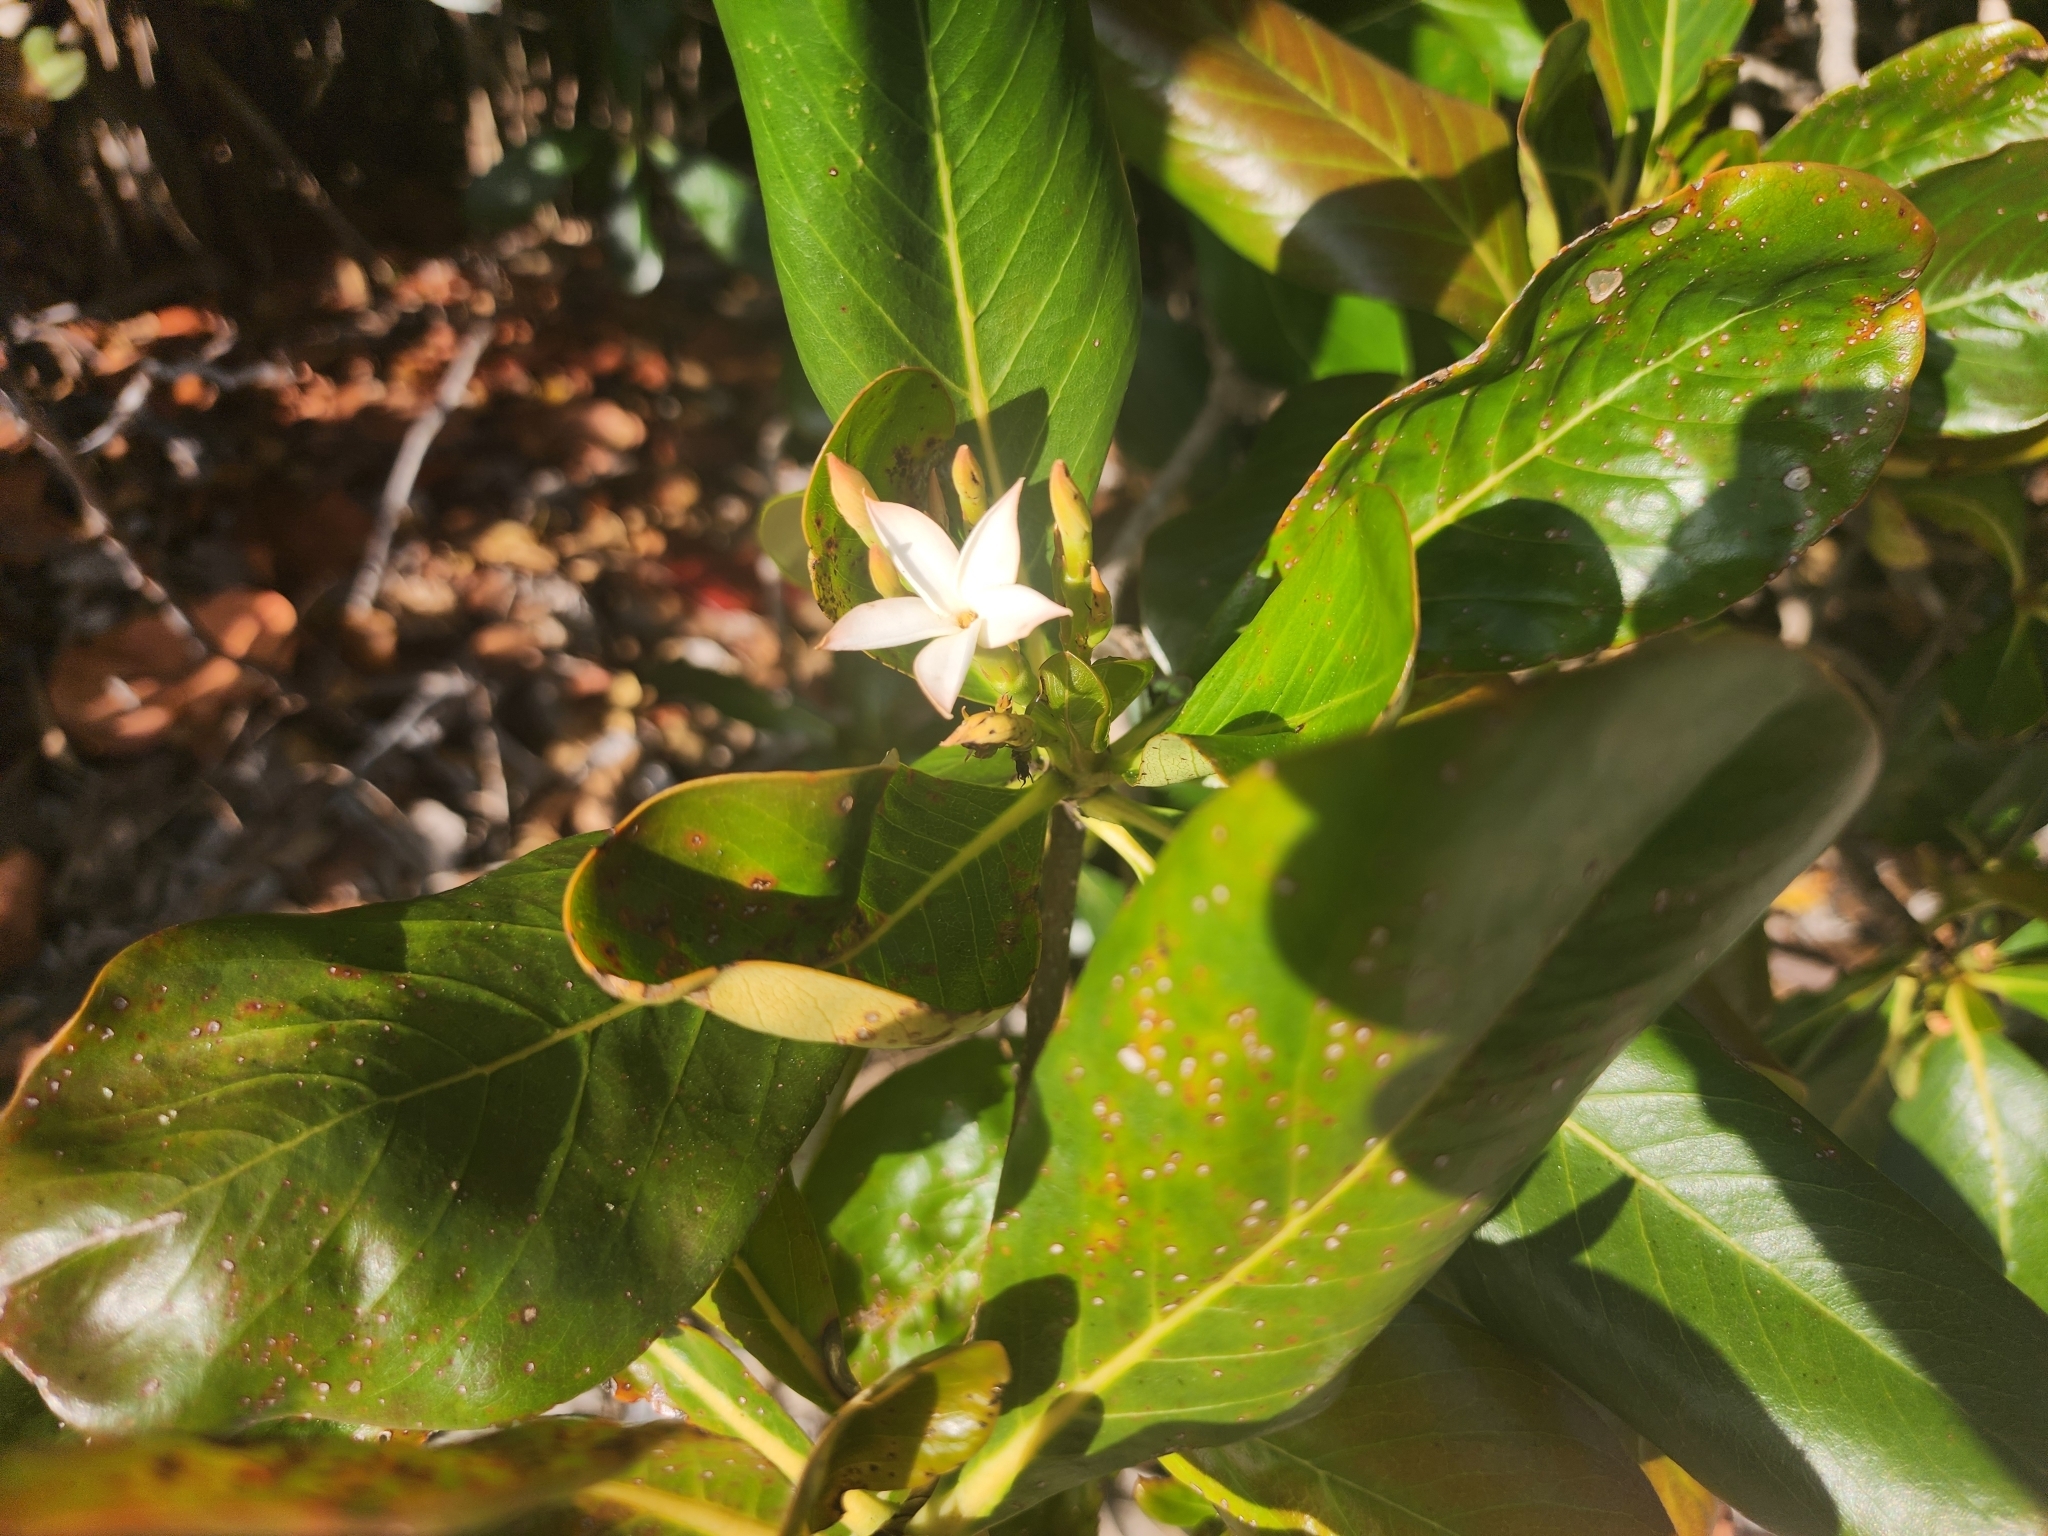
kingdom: Plantae
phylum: Tracheophyta
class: Magnoliopsida
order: Gentianales
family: Rubiaceae
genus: Casasia
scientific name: Casasia clusiifolia
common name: Seven-year apple
